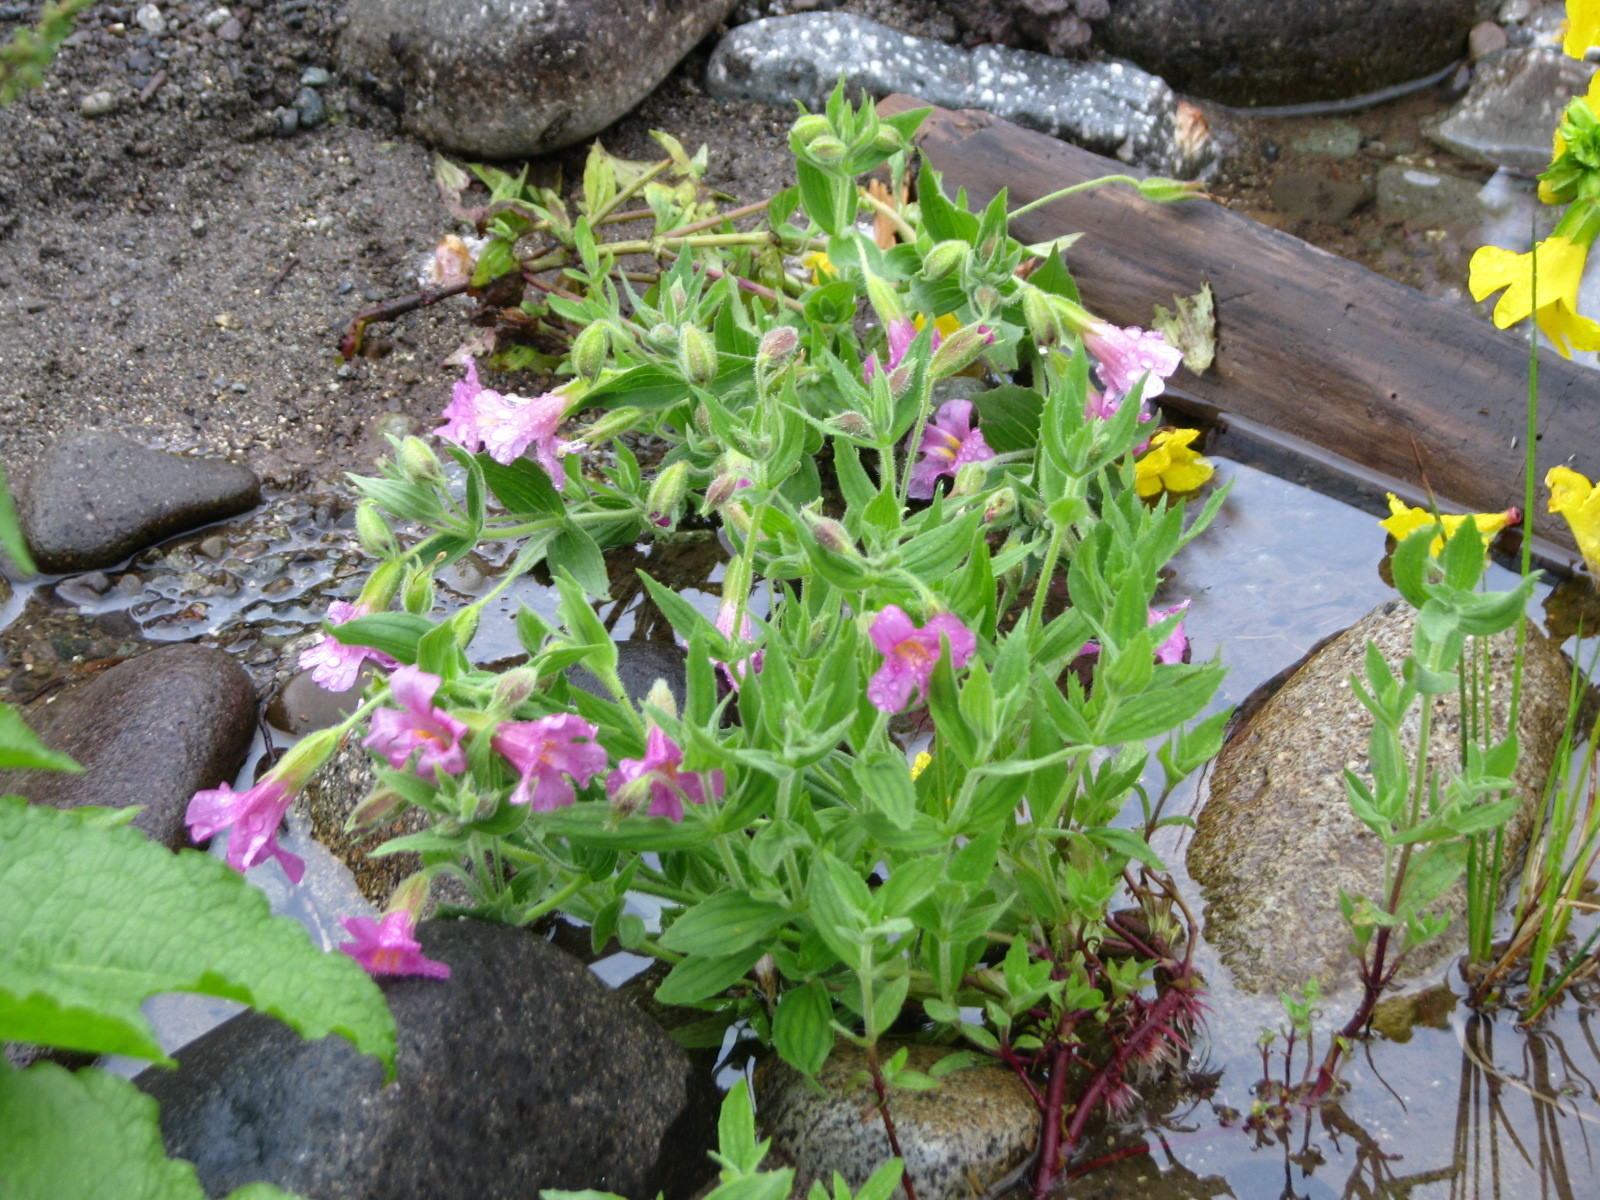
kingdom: Plantae
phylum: Tracheophyta
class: Magnoliopsida
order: Lamiales
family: Phrymaceae
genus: Erythranthe
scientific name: Erythranthe lewisii
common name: Lewis's monkey-flower
